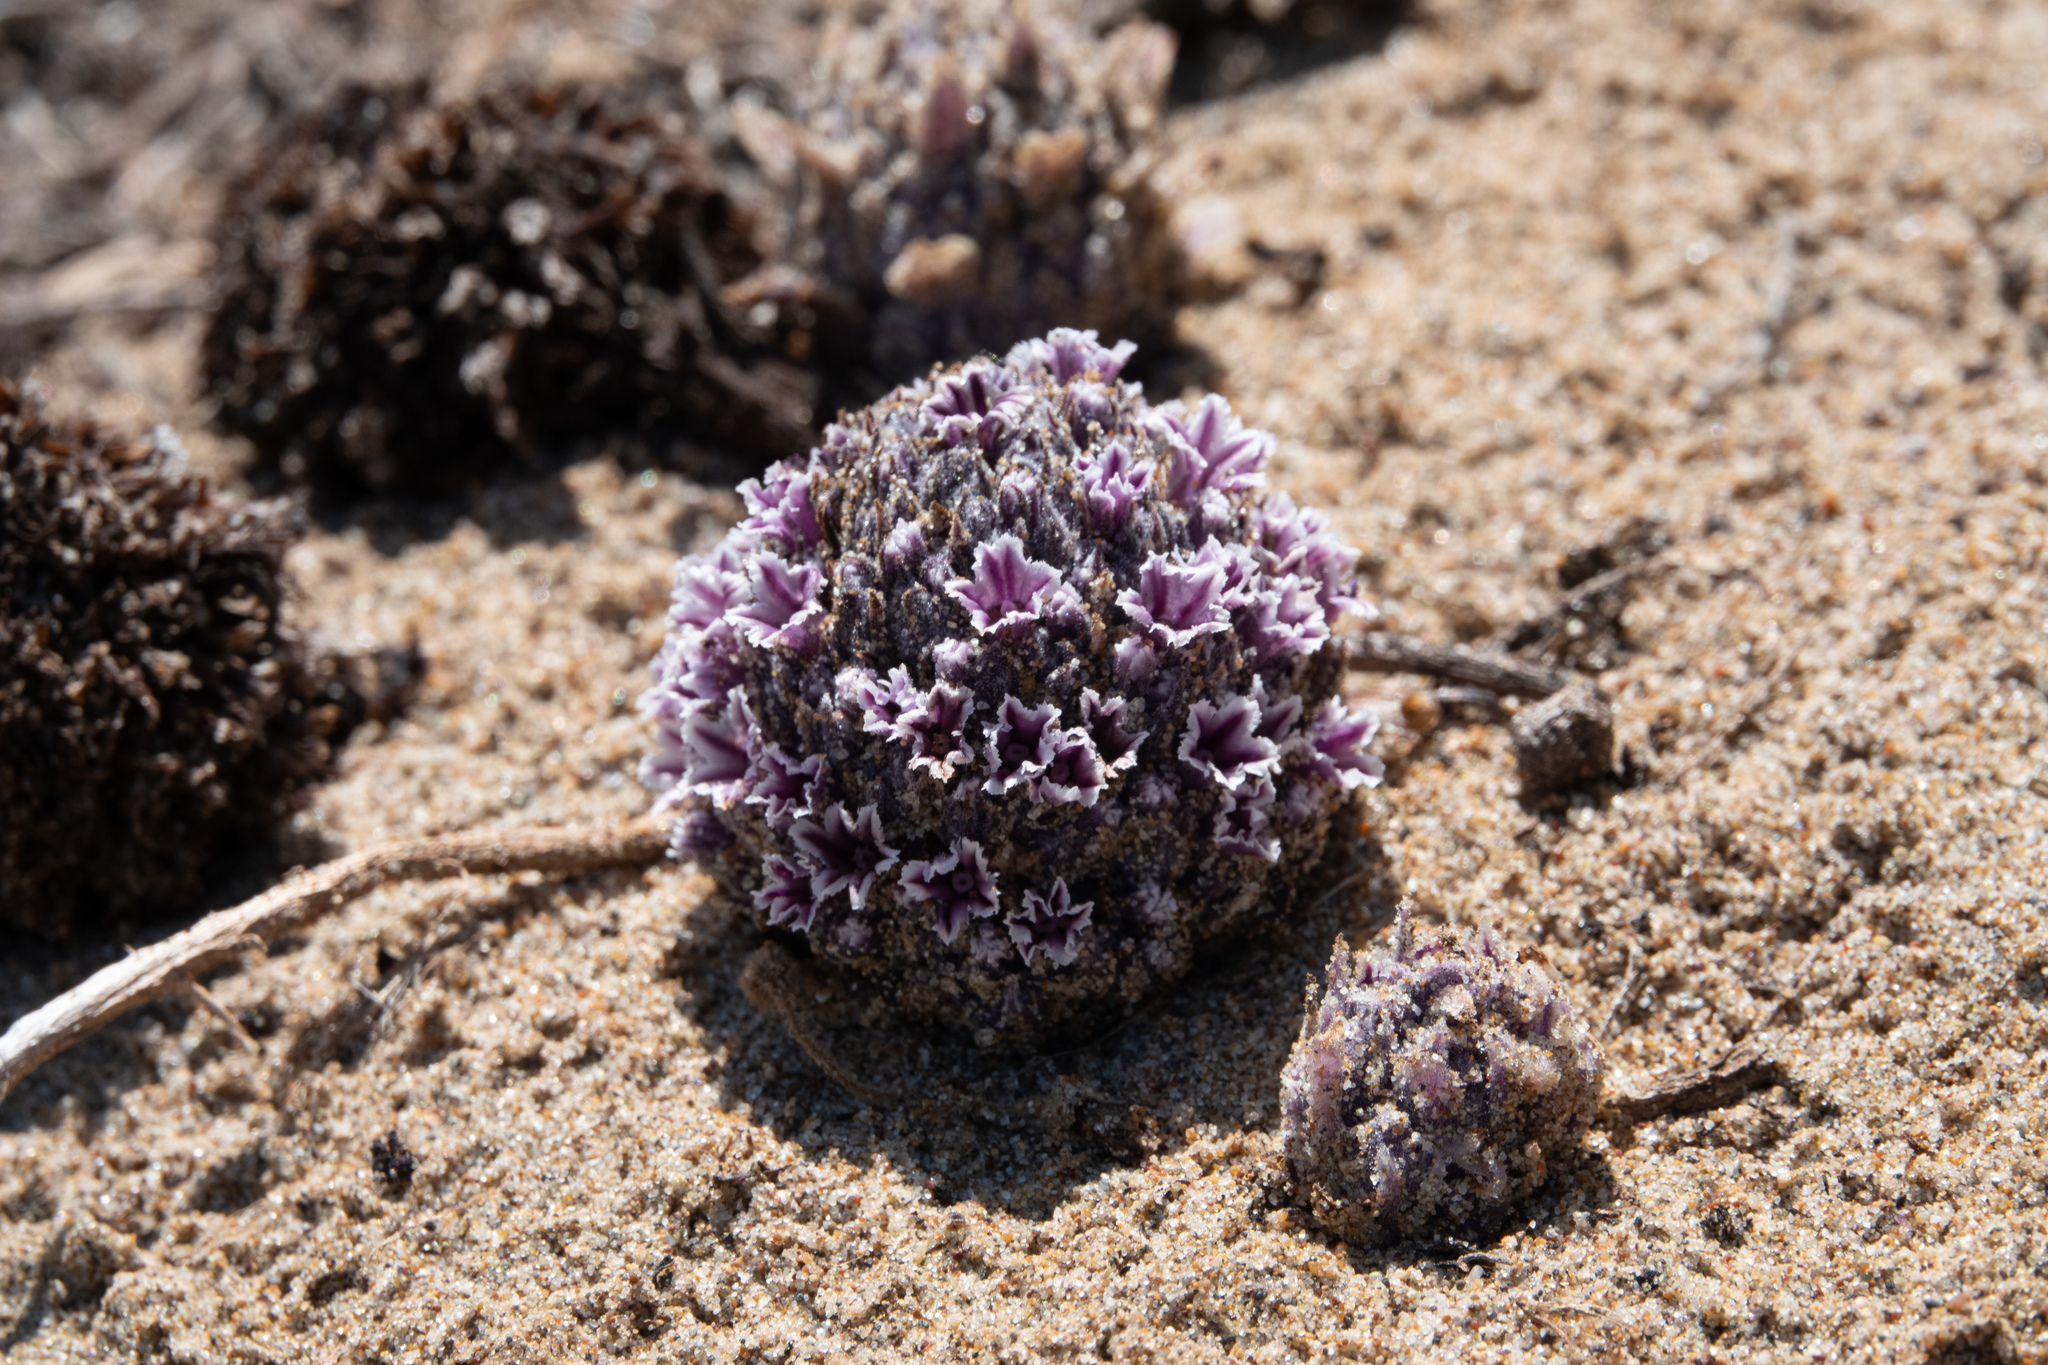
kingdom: Plantae
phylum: Tracheophyta
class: Magnoliopsida
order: Boraginales
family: Lennoaceae
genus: Pholisma
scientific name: Pholisma arenarium
